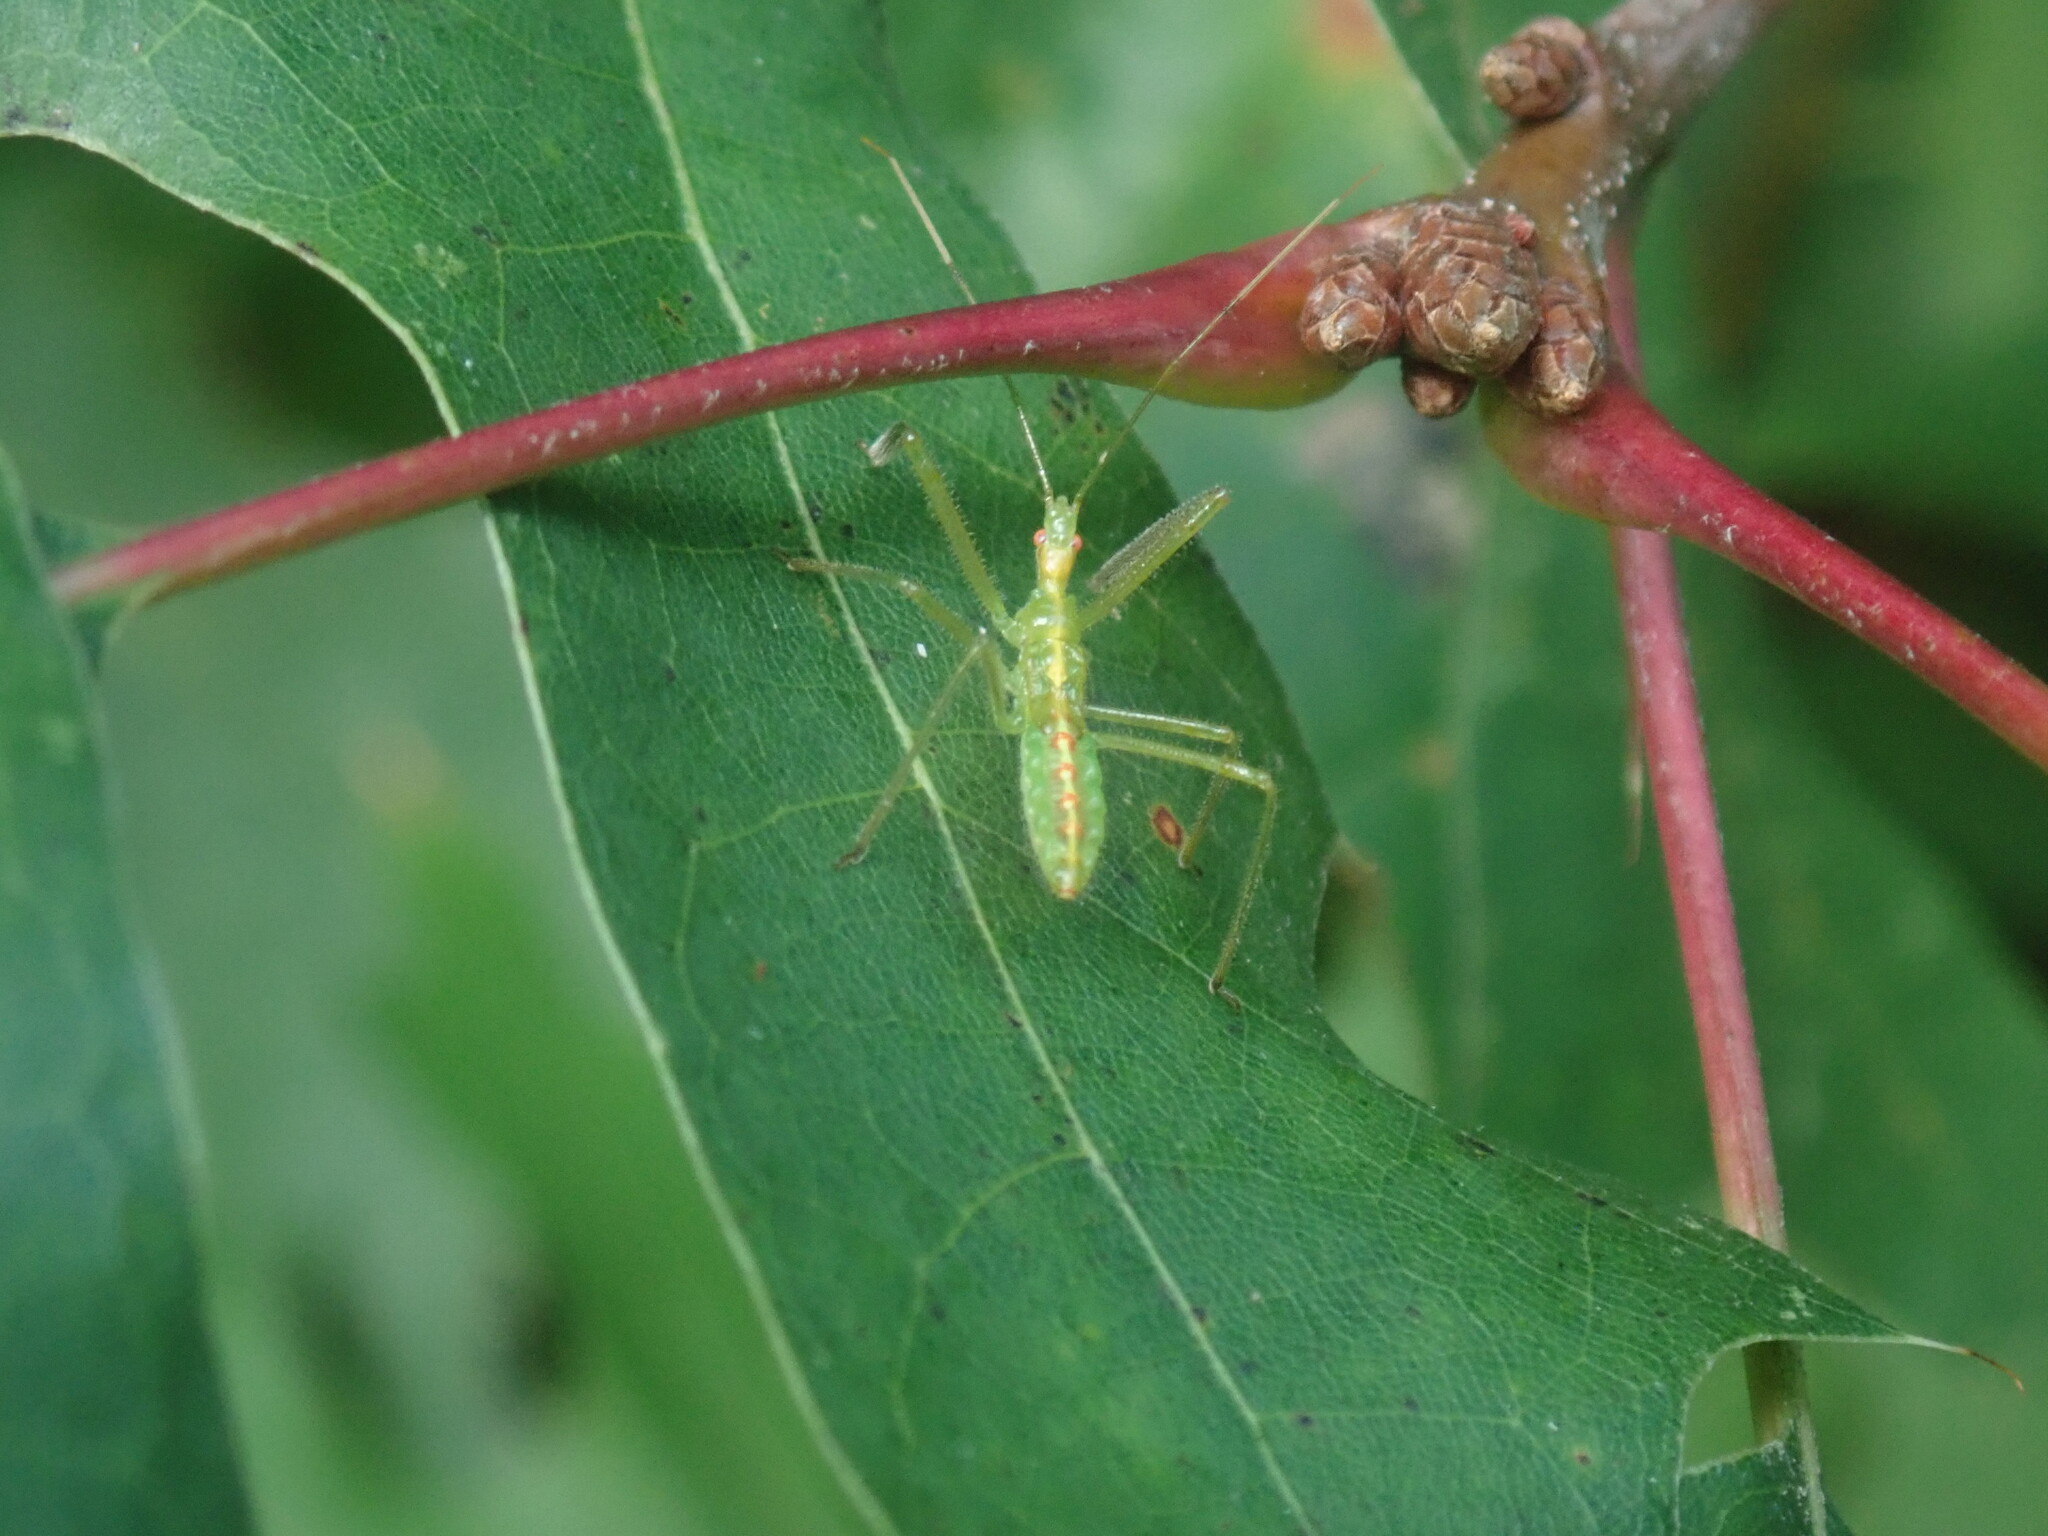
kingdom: Animalia
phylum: Arthropoda
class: Insecta
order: Hemiptera
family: Reduviidae
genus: Zelus
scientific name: Zelus luridus
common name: Pale green assassin bug
